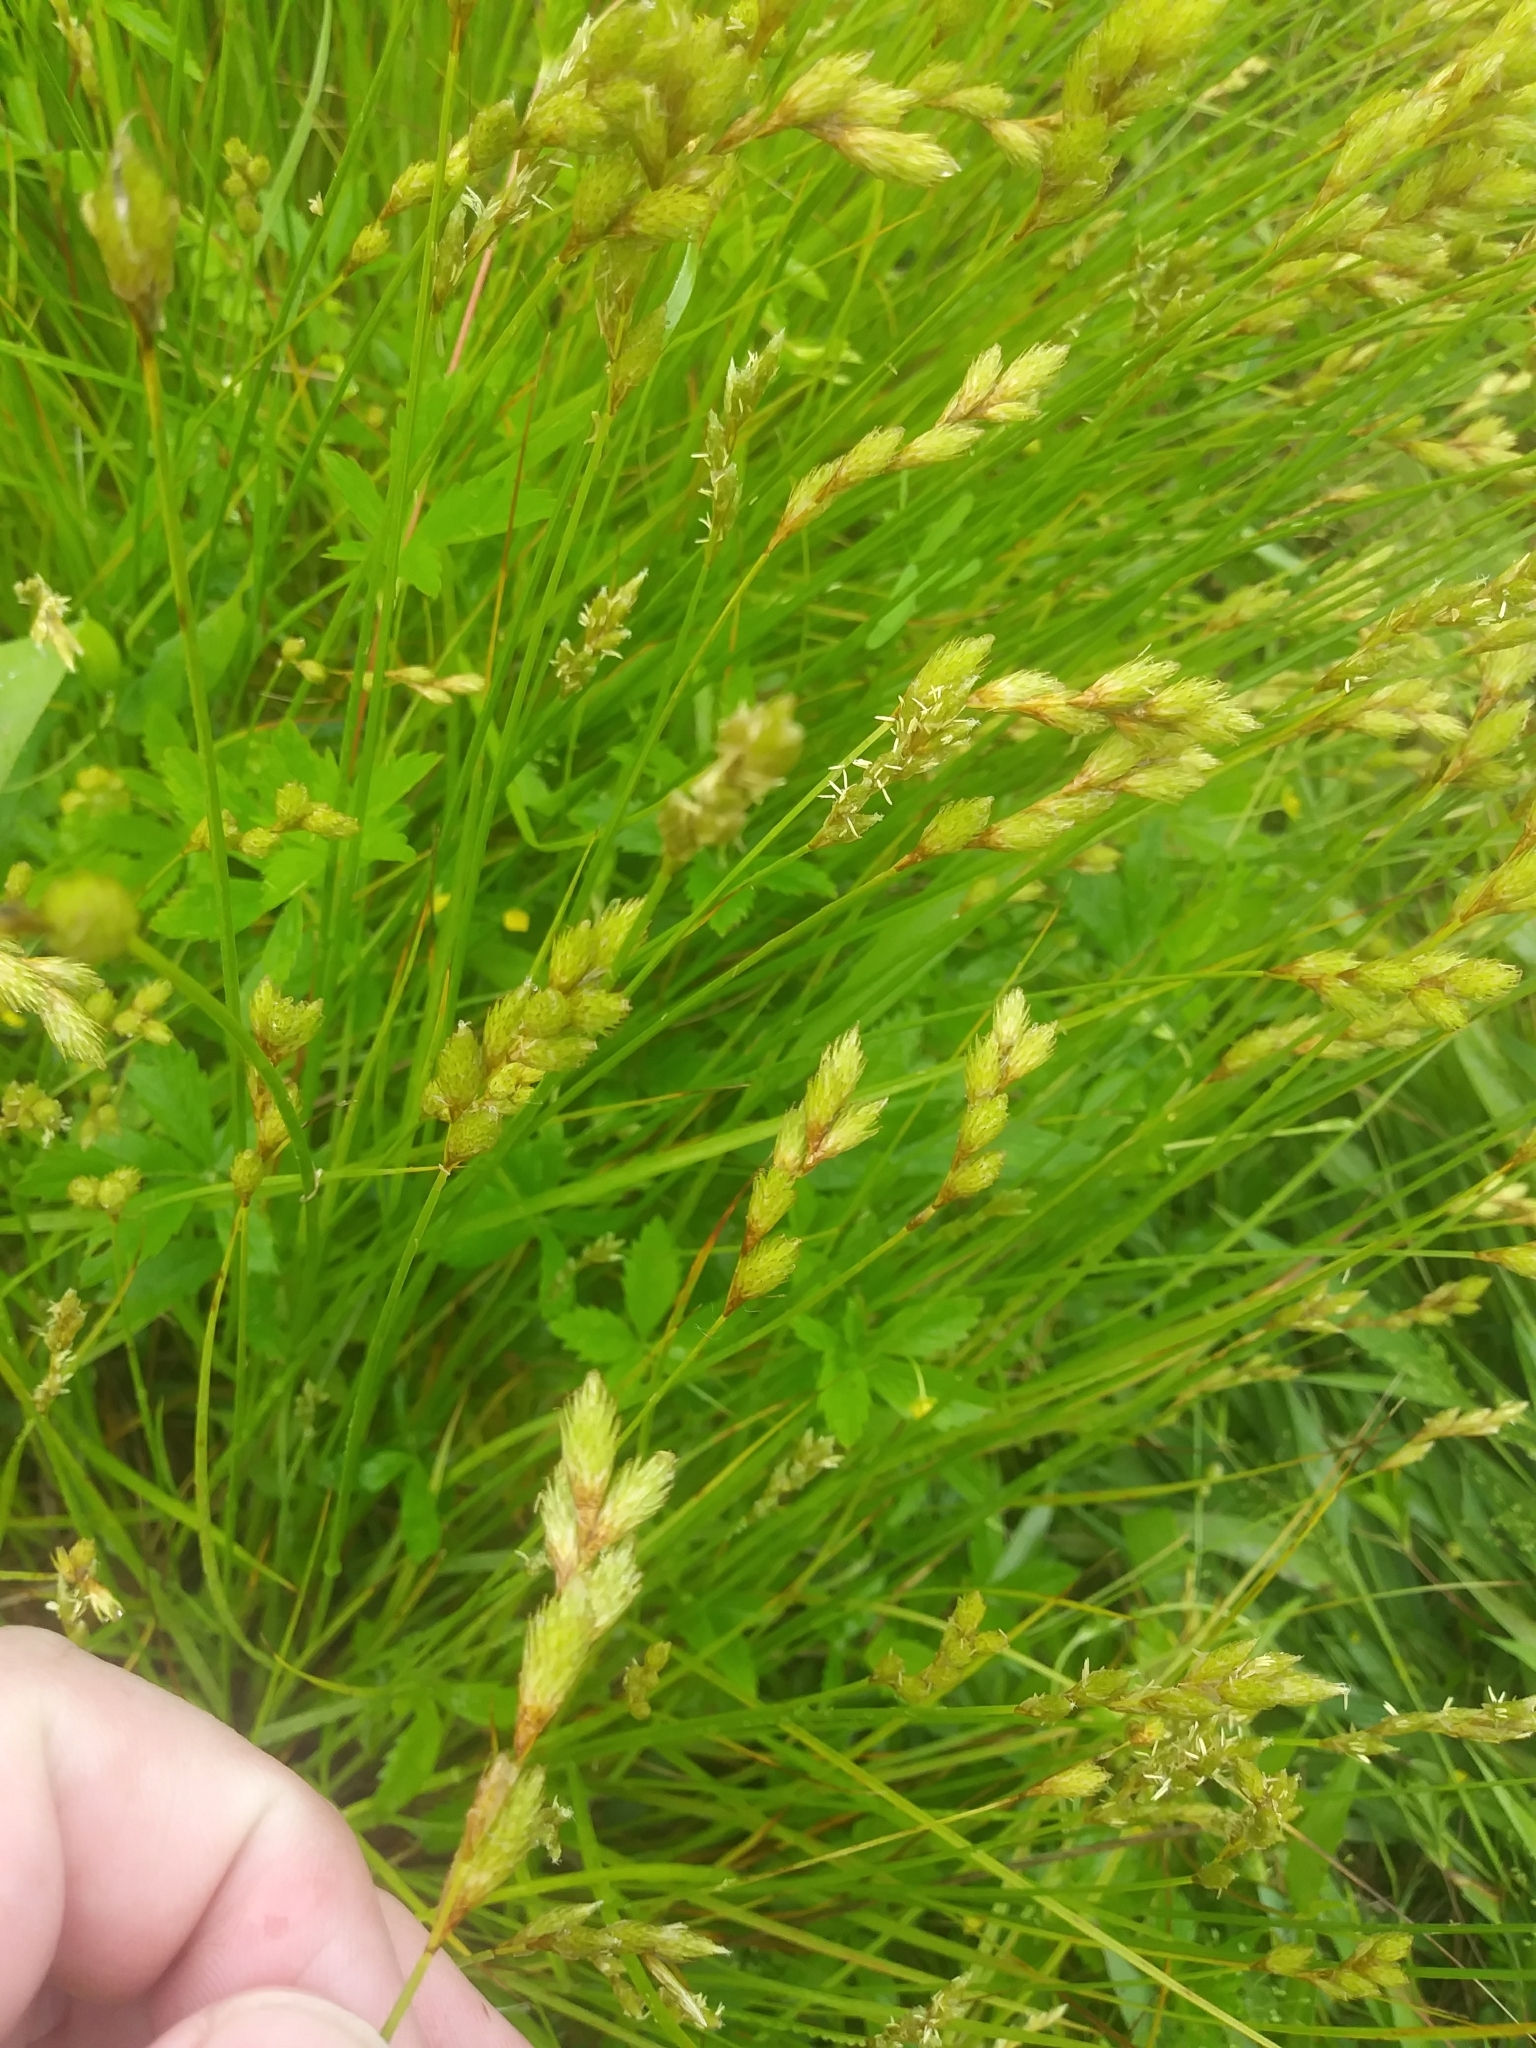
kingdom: Plantae
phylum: Tracheophyta
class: Liliopsida
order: Poales
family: Cyperaceae
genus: Carex
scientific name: Carex scoparia
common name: Broom sedge
